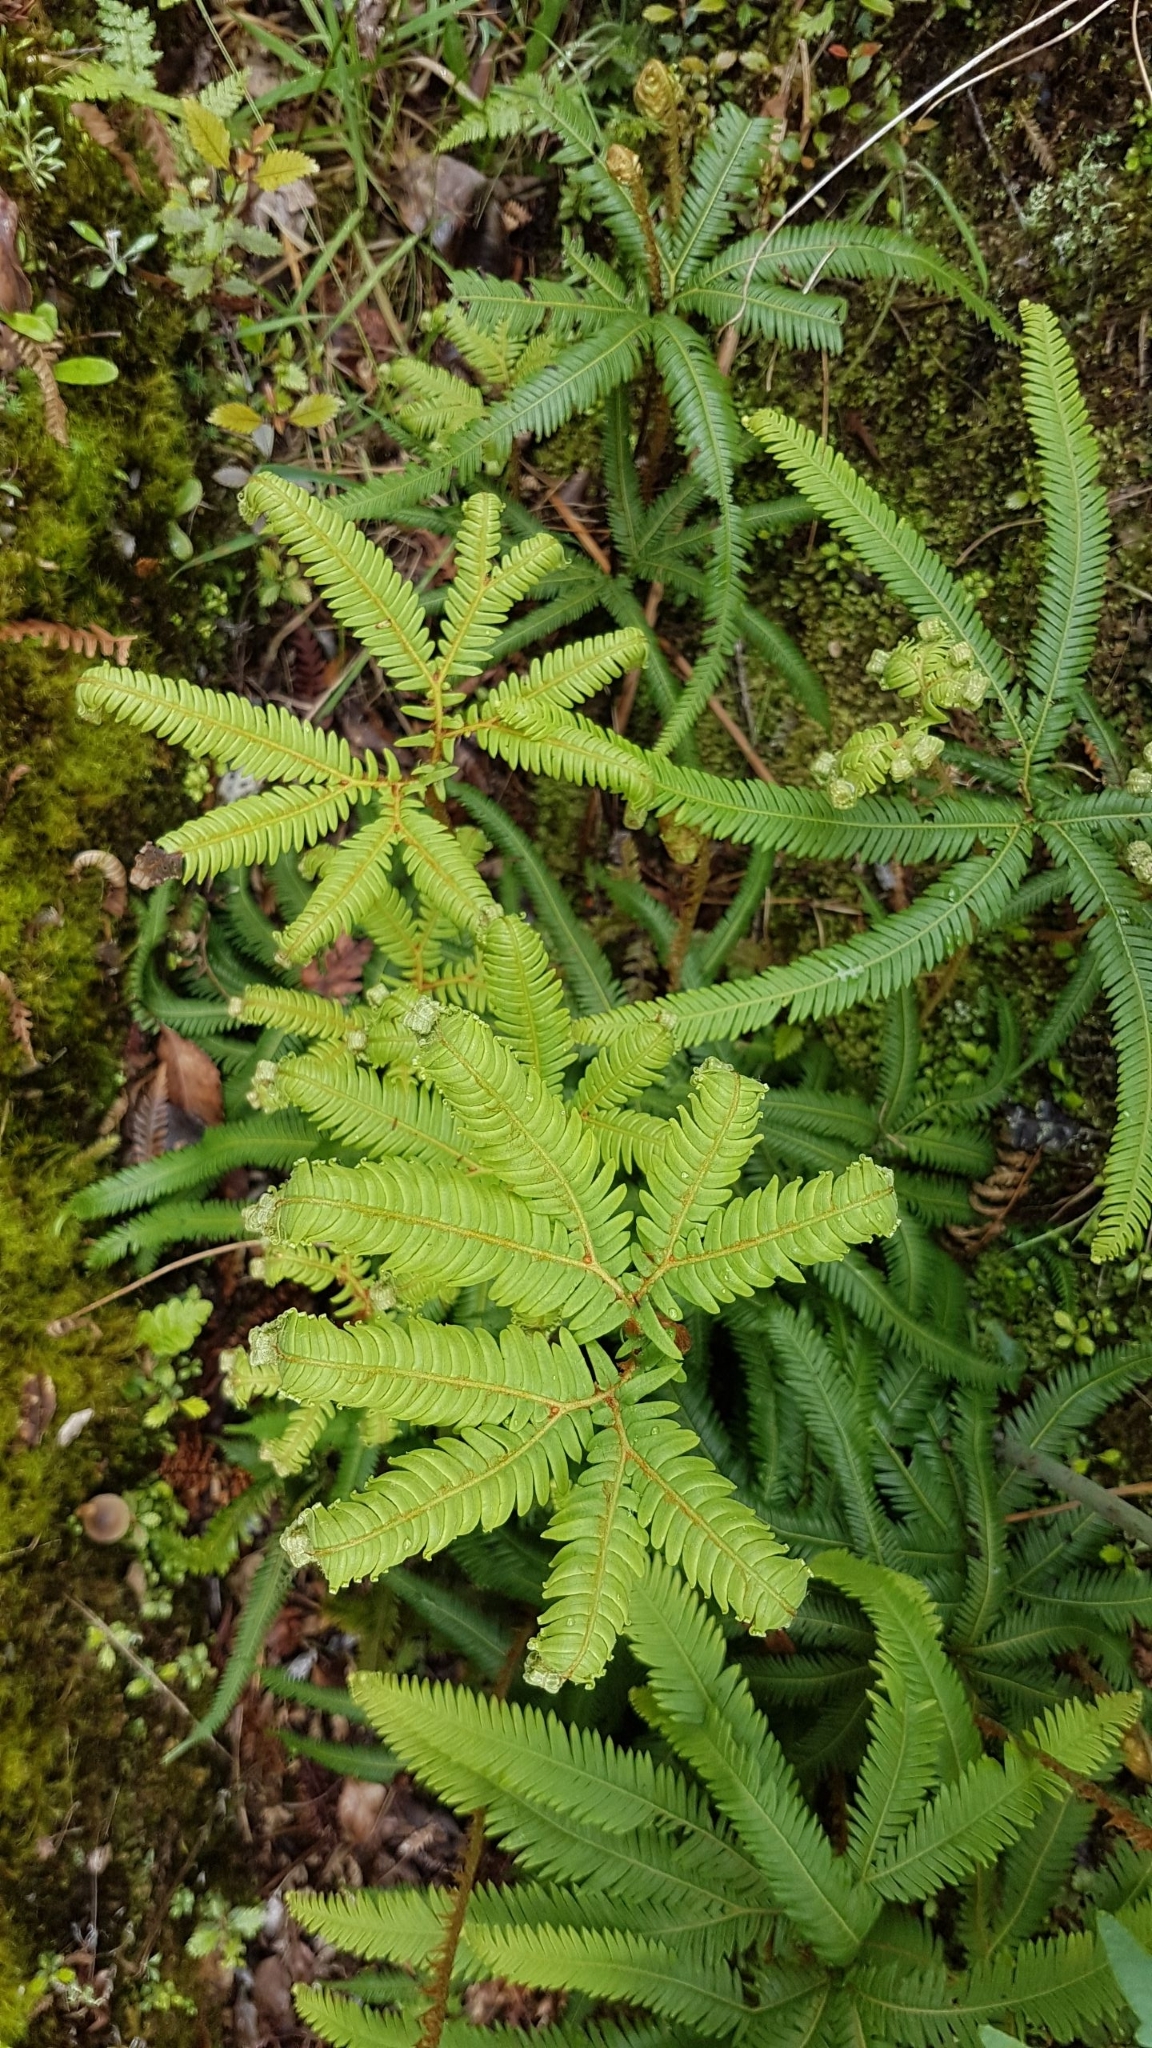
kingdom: Plantae
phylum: Tracheophyta
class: Polypodiopsida
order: Gleicheniales
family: Gleicheniaceae
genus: Sticherus
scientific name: Sticherus cunninghamii
